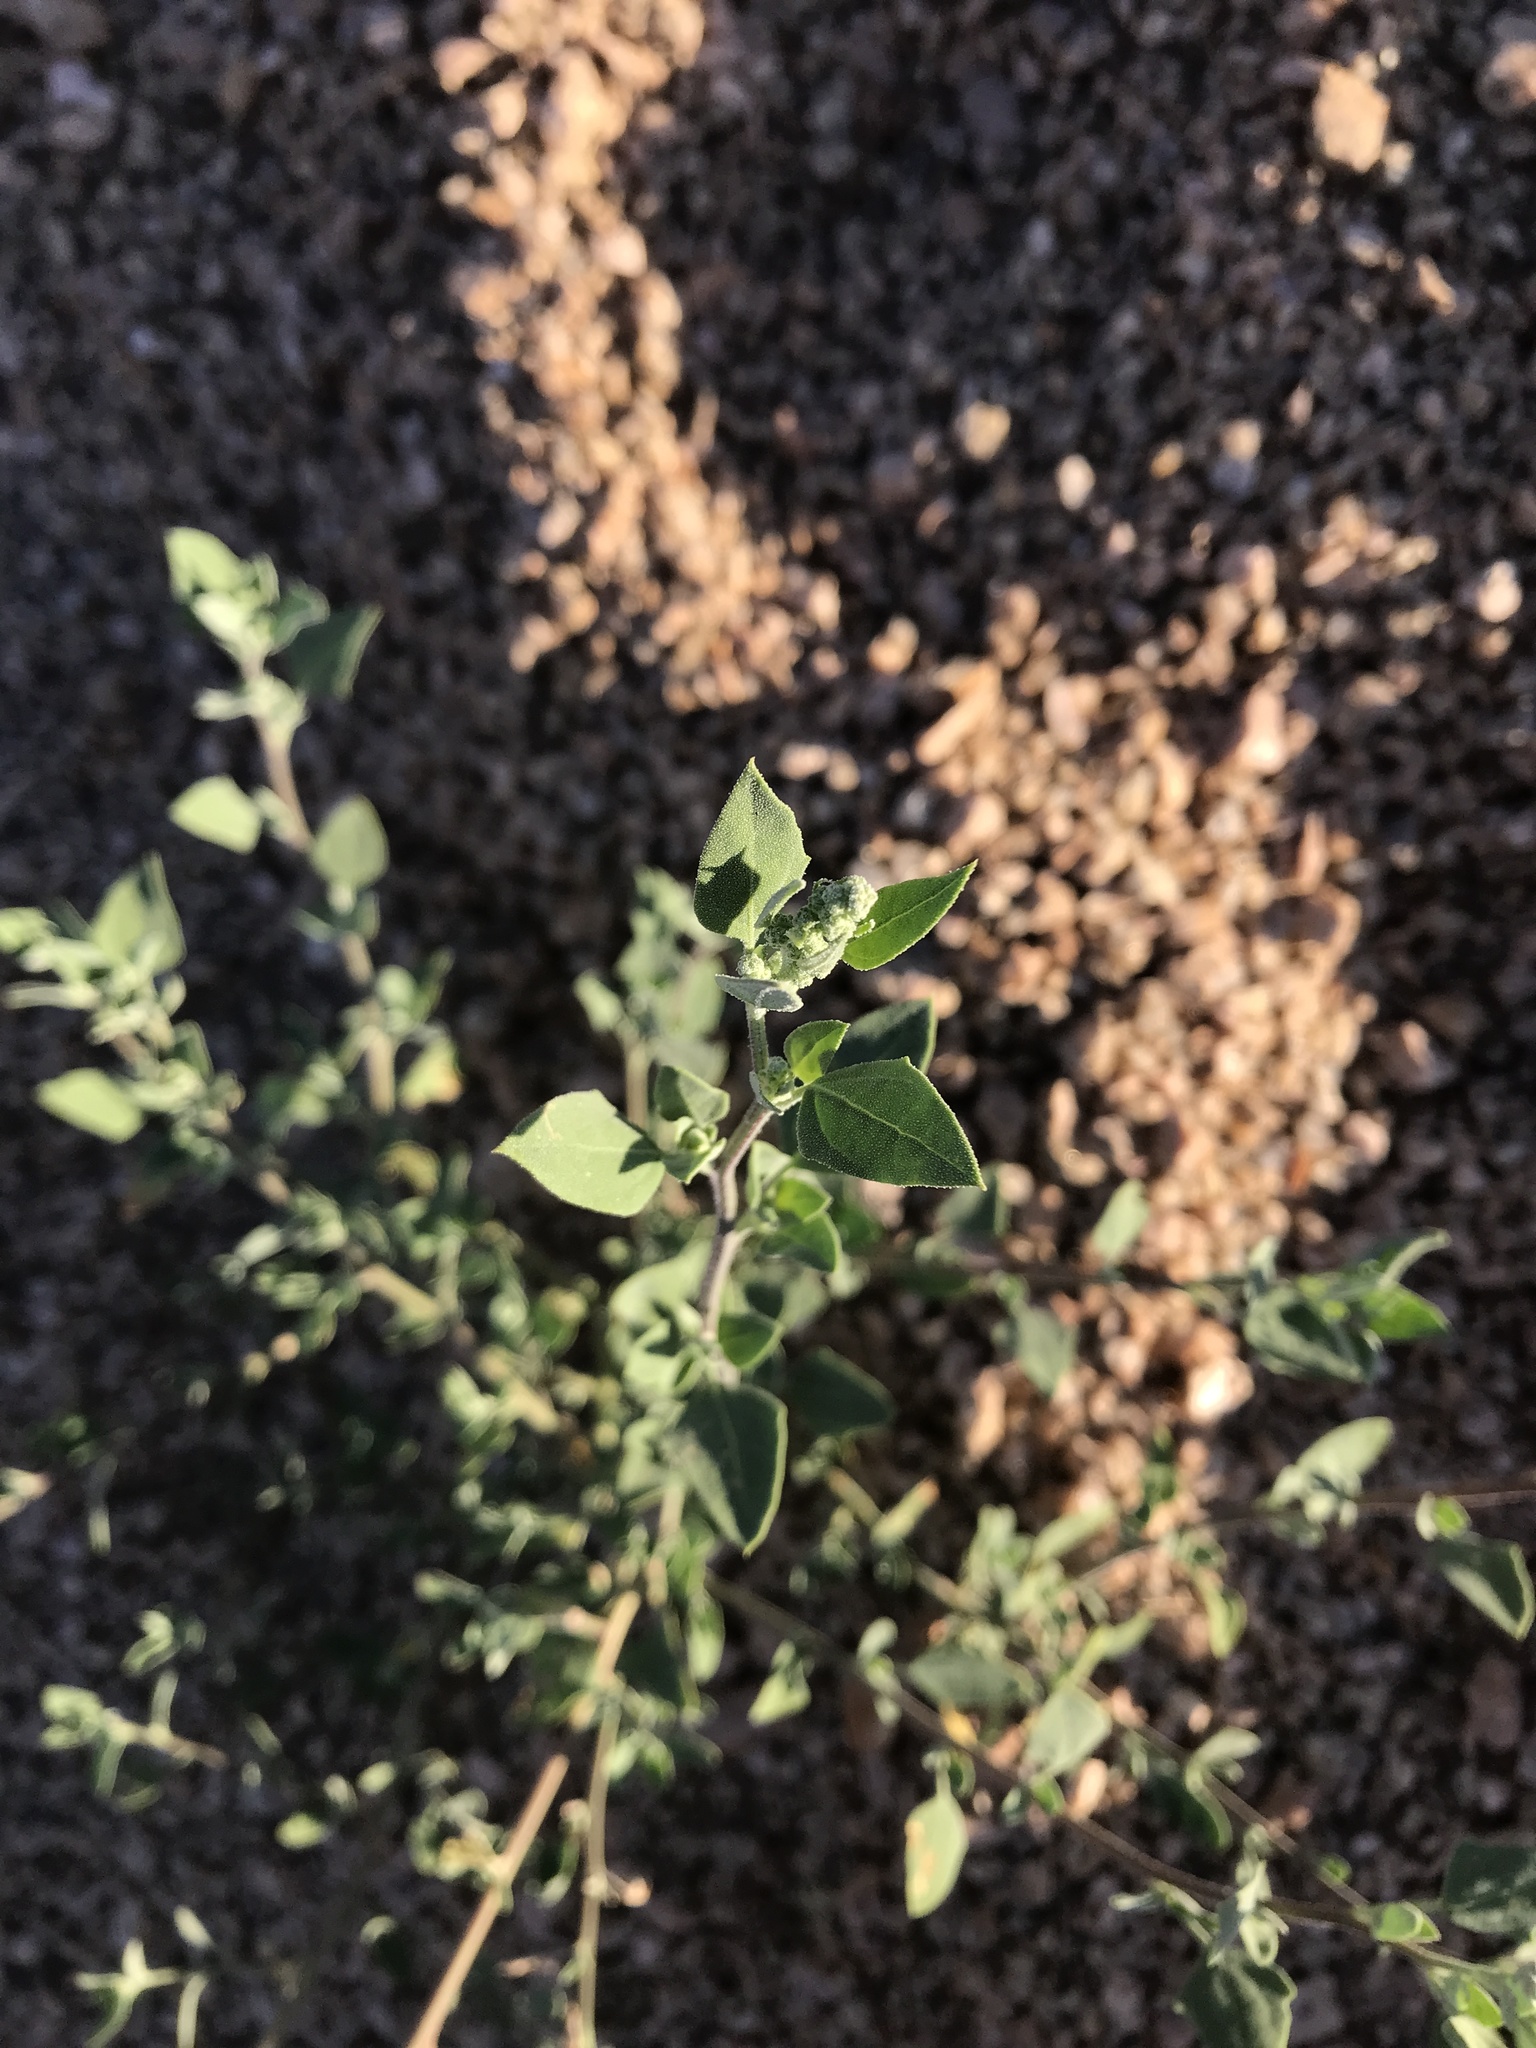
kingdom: Plantae
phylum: Tracheophyta
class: Magnoliopsida
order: Caryophyllales
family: Amaranthaceae
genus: Chenopodium
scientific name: Chenopodium incanum
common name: Hoary goosefoot
